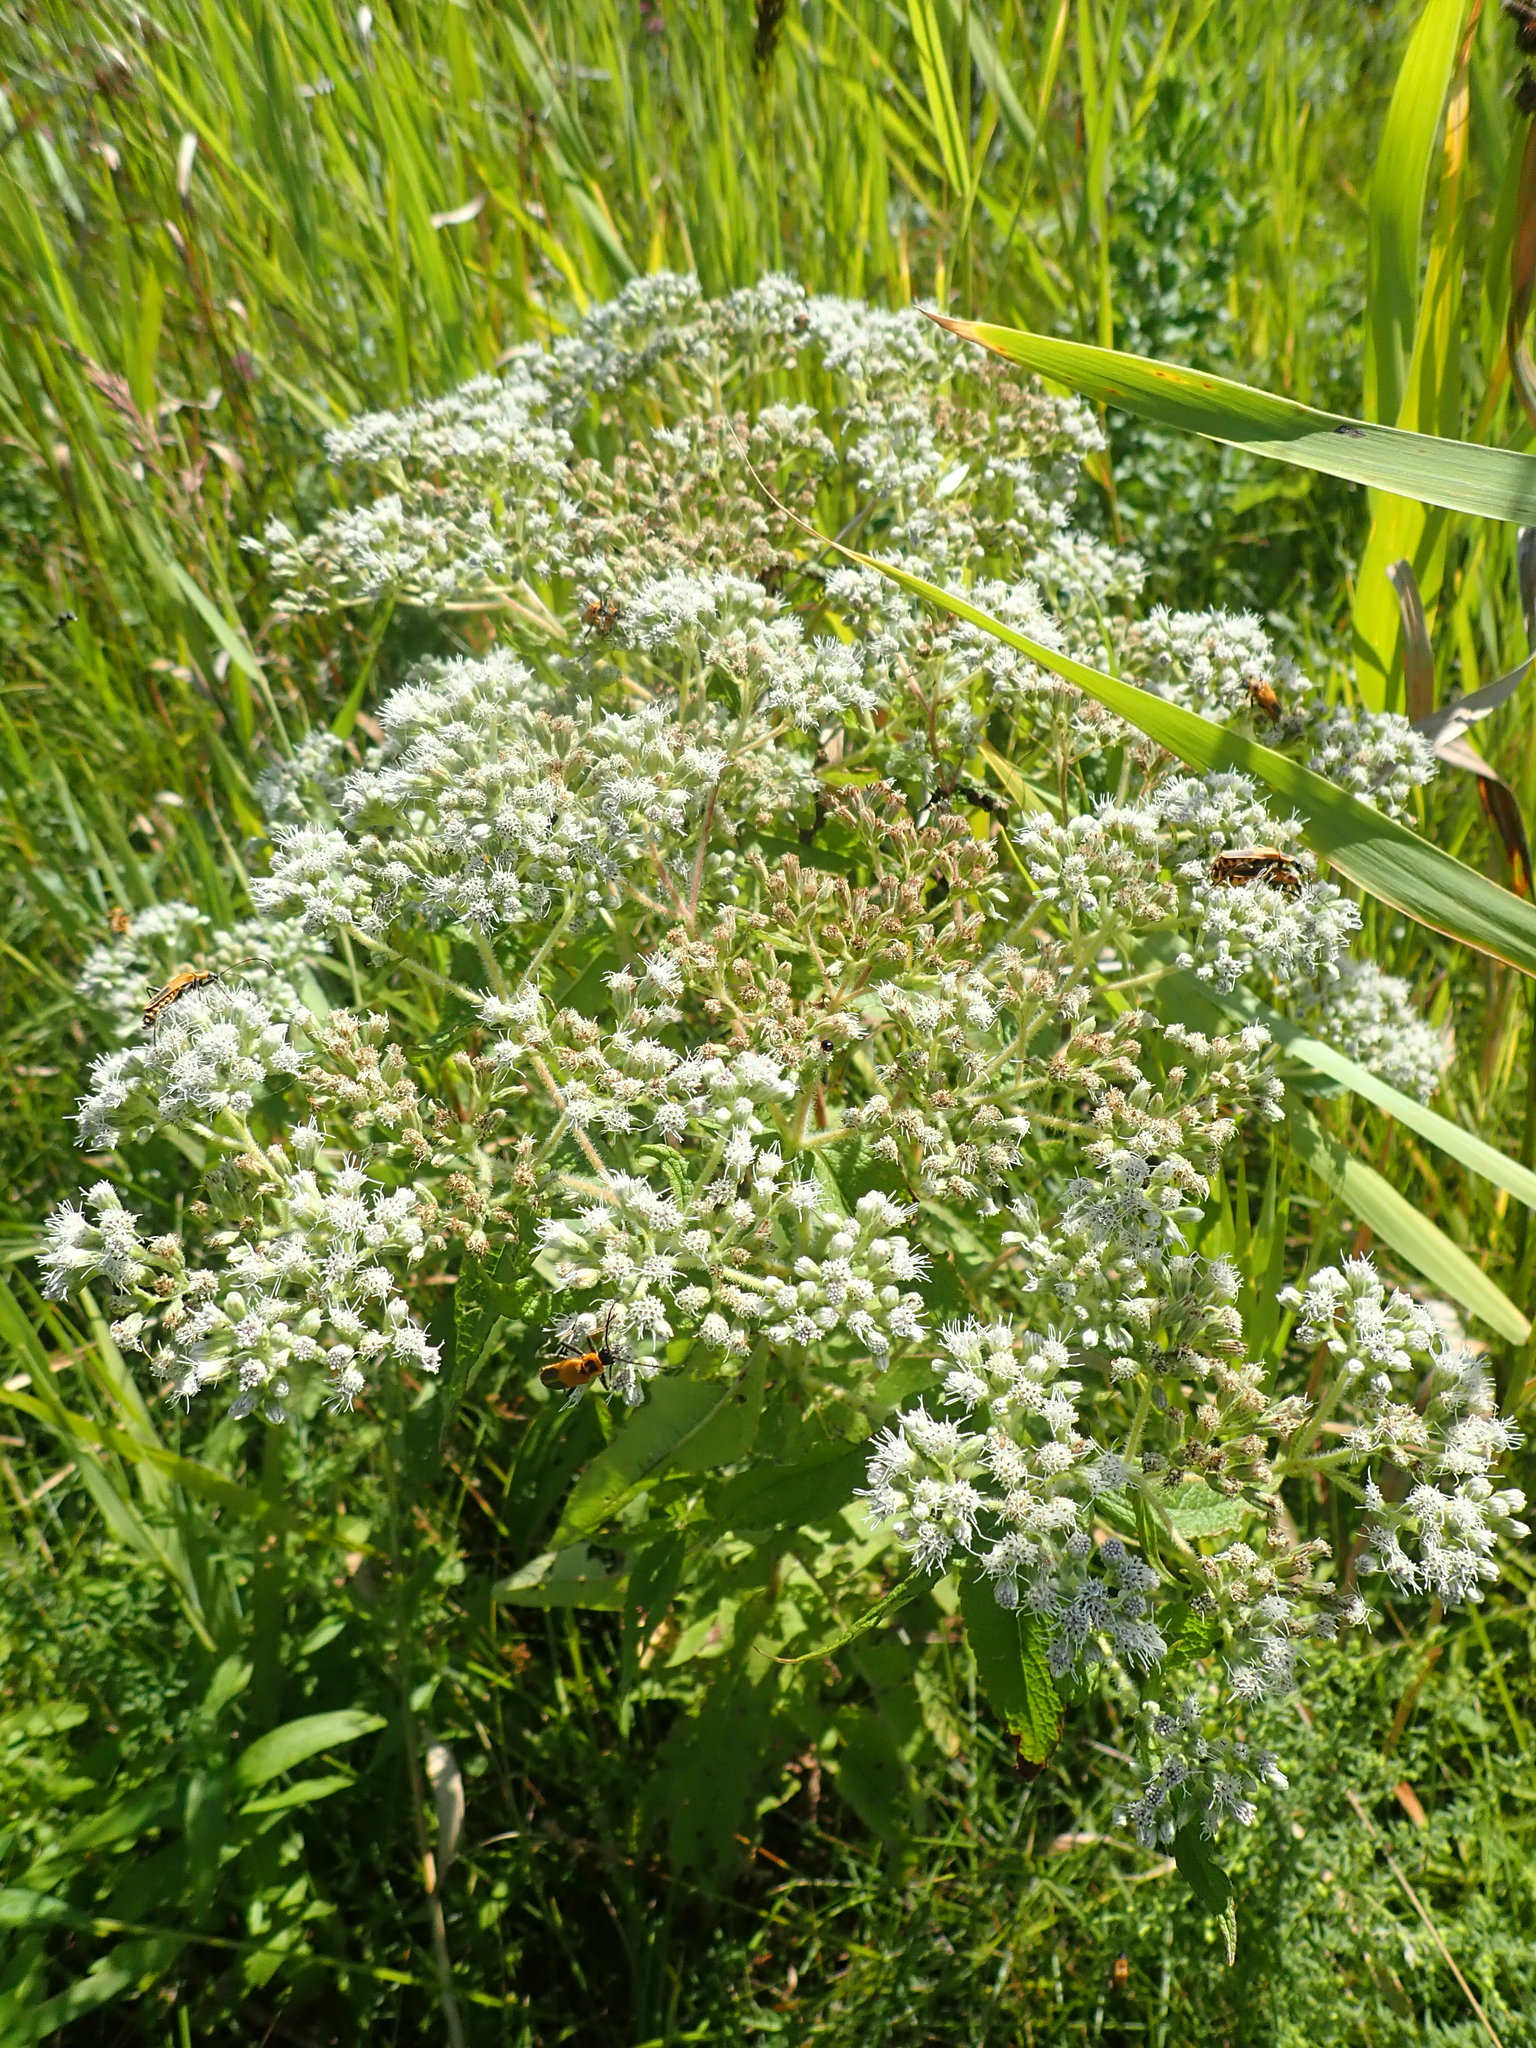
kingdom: Plantae
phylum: Tracheophyta
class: Magnoliopsida
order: Asterales
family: Asteraceae
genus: Eupatorium
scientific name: Eupatorium perfoliatum
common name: Boneset
